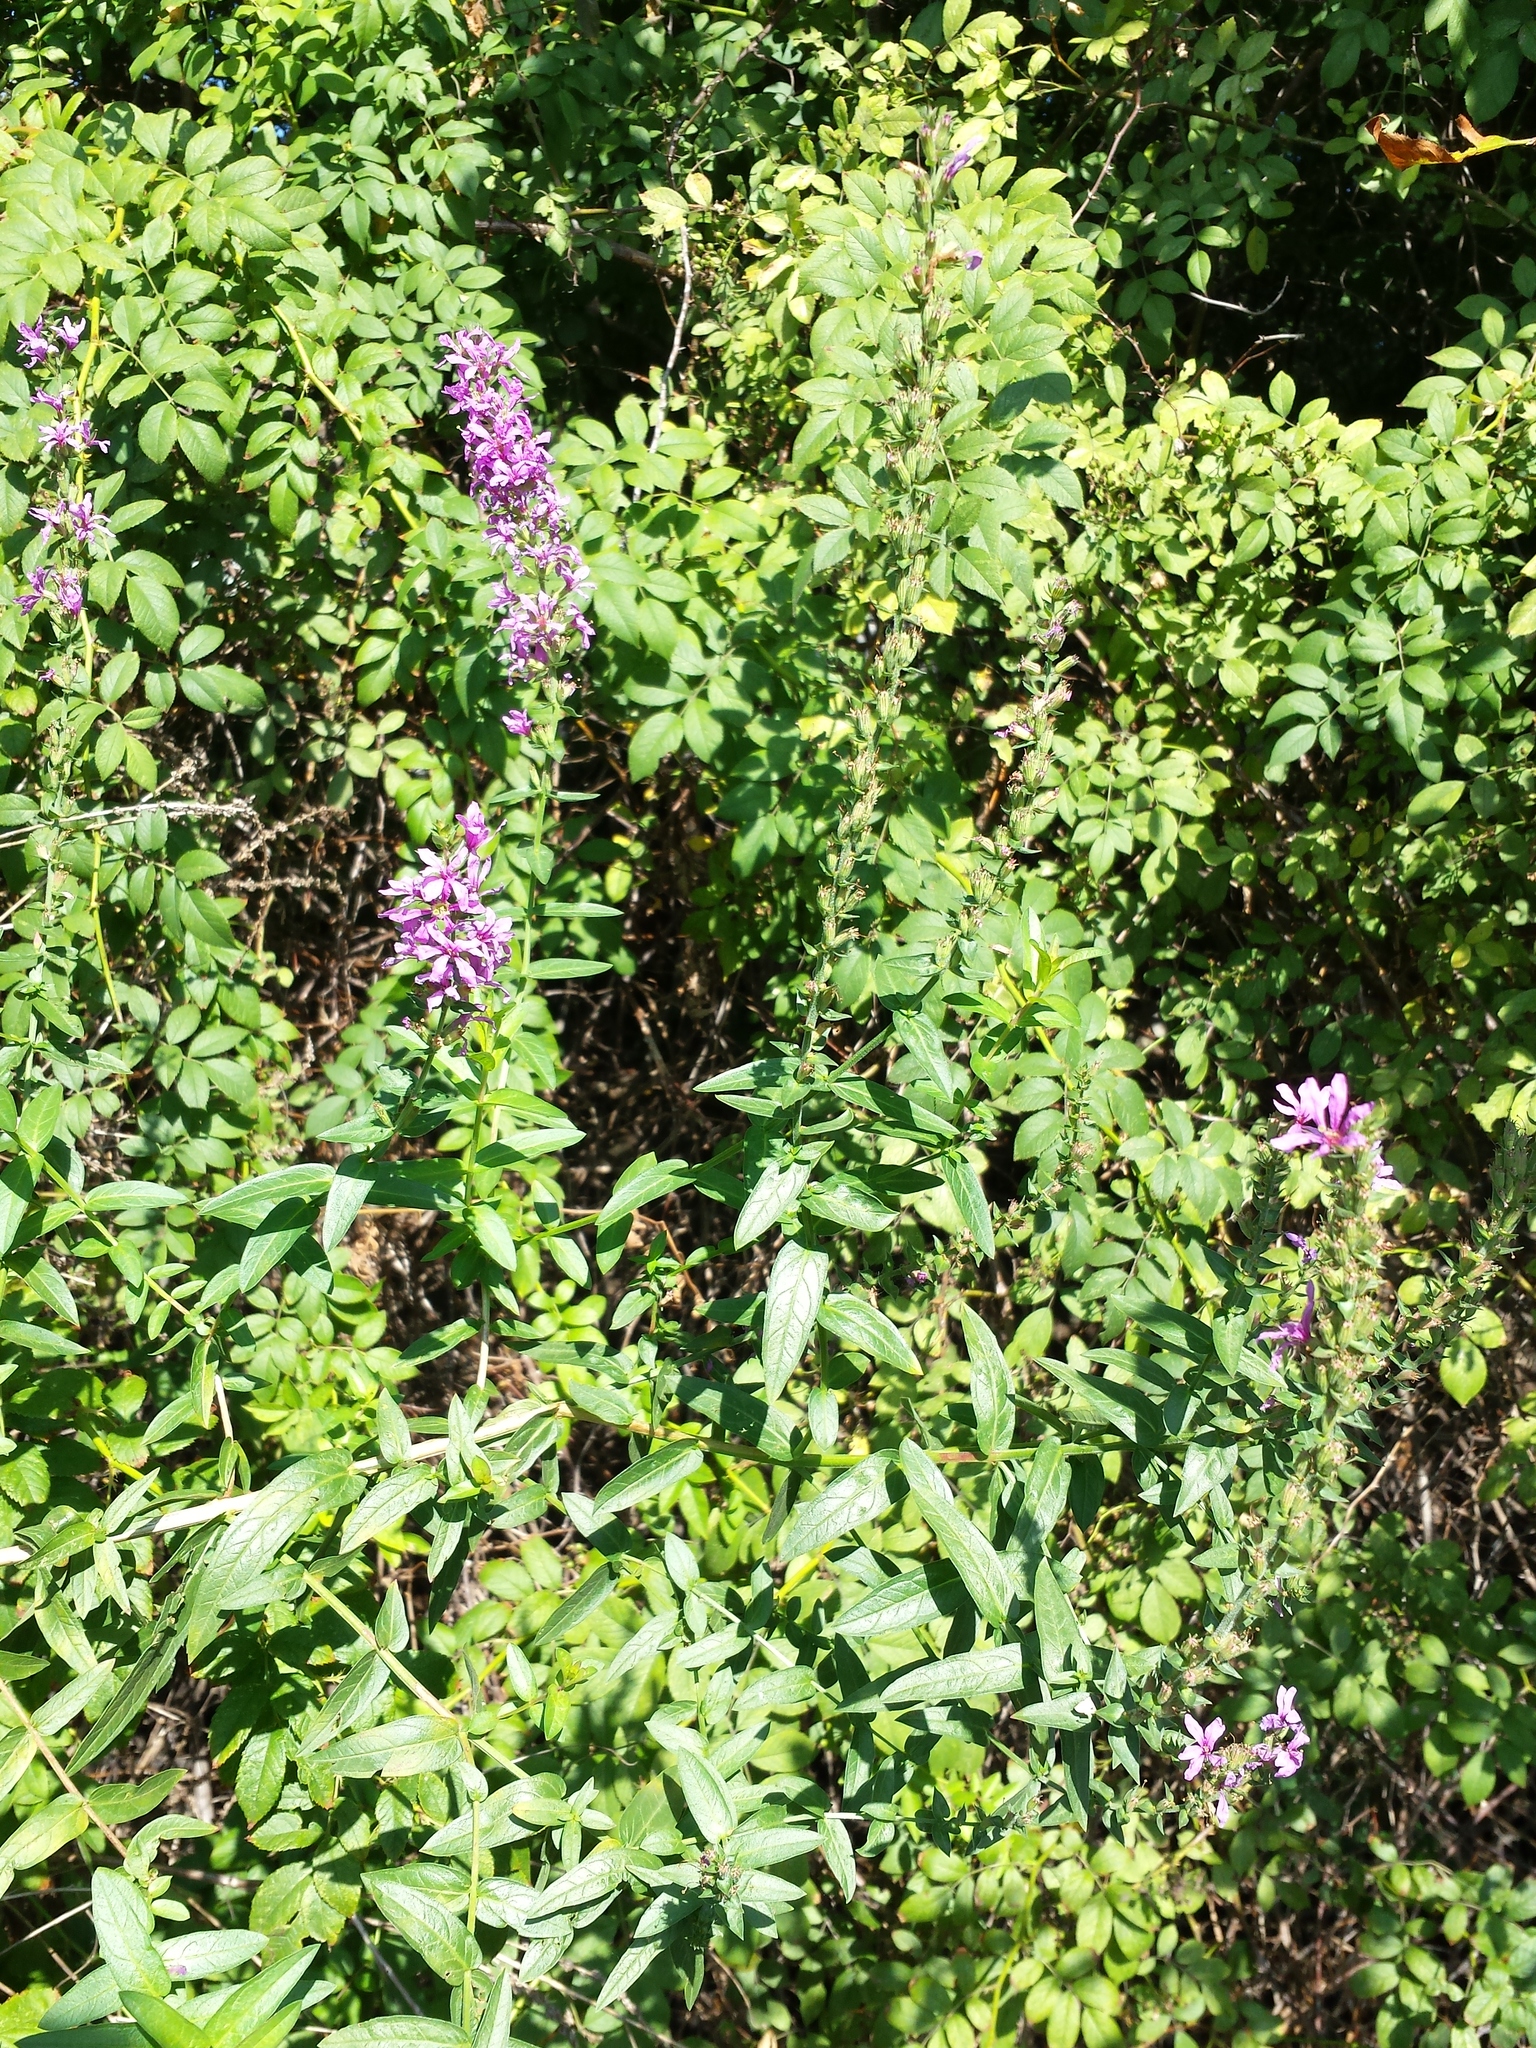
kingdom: Plantae
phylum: Tracheophyta
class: Magnoliopsida
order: Myrtales
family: Lythraceae
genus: Lythrum
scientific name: Lythrum salicaria
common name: Purple loosestrife
